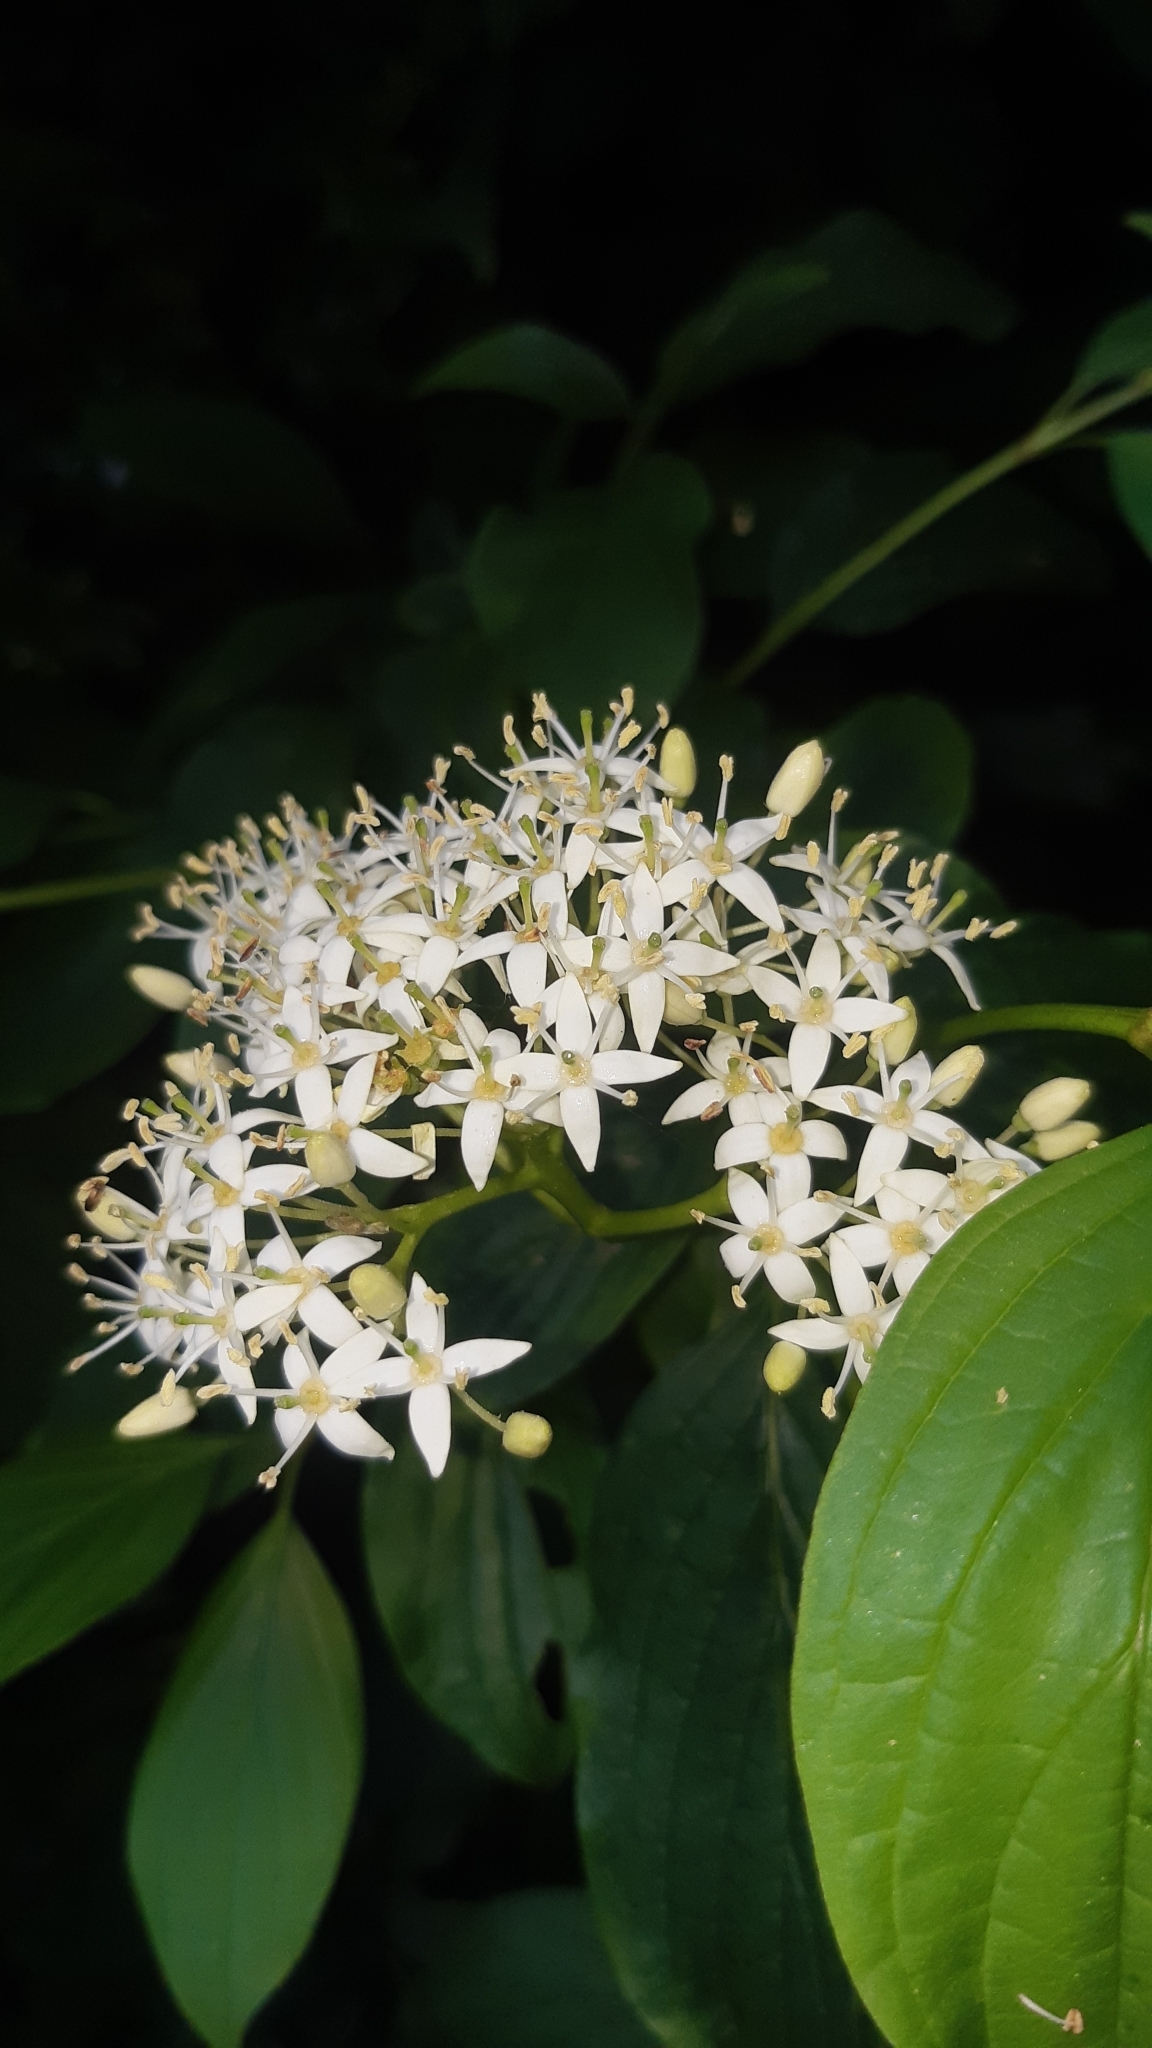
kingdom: Plantae
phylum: Tracheophyta
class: Magnoliopsida
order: Cornales
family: Cornaceae
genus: Cornus
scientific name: Cornus sanguinea
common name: Dogwood
